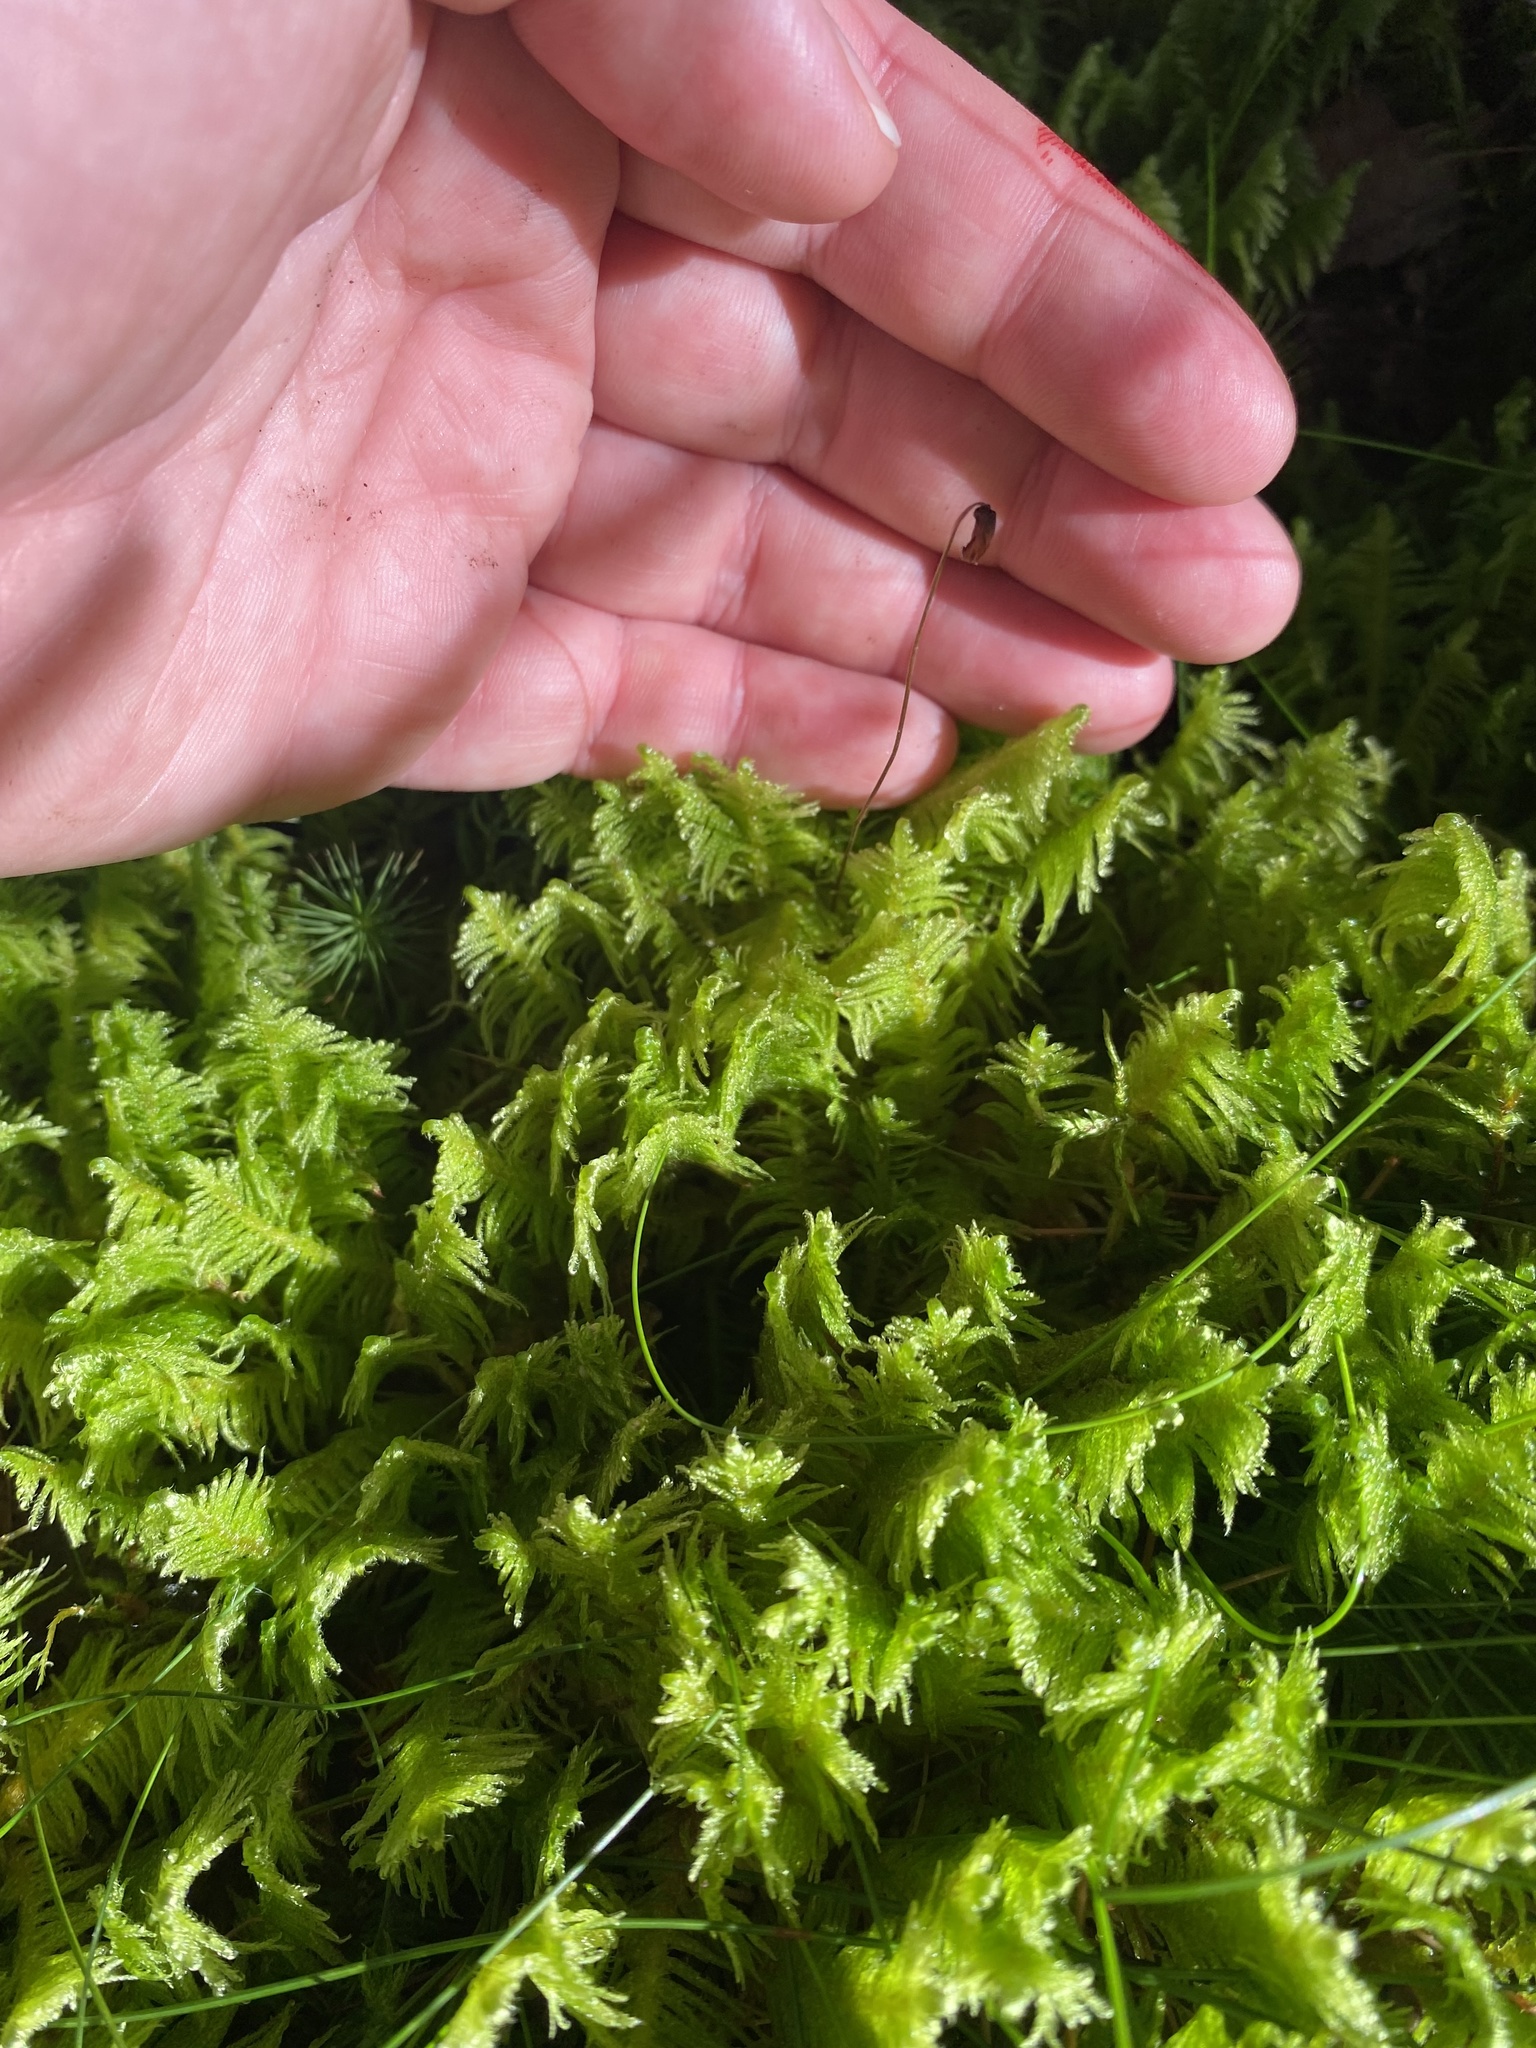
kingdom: Plantae
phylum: Bryophyta
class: Bryopsida
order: Hypnales
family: Pylaisiaceae
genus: Ptilium
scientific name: Ptilium crista-castrensis
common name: Knight's plume moss
